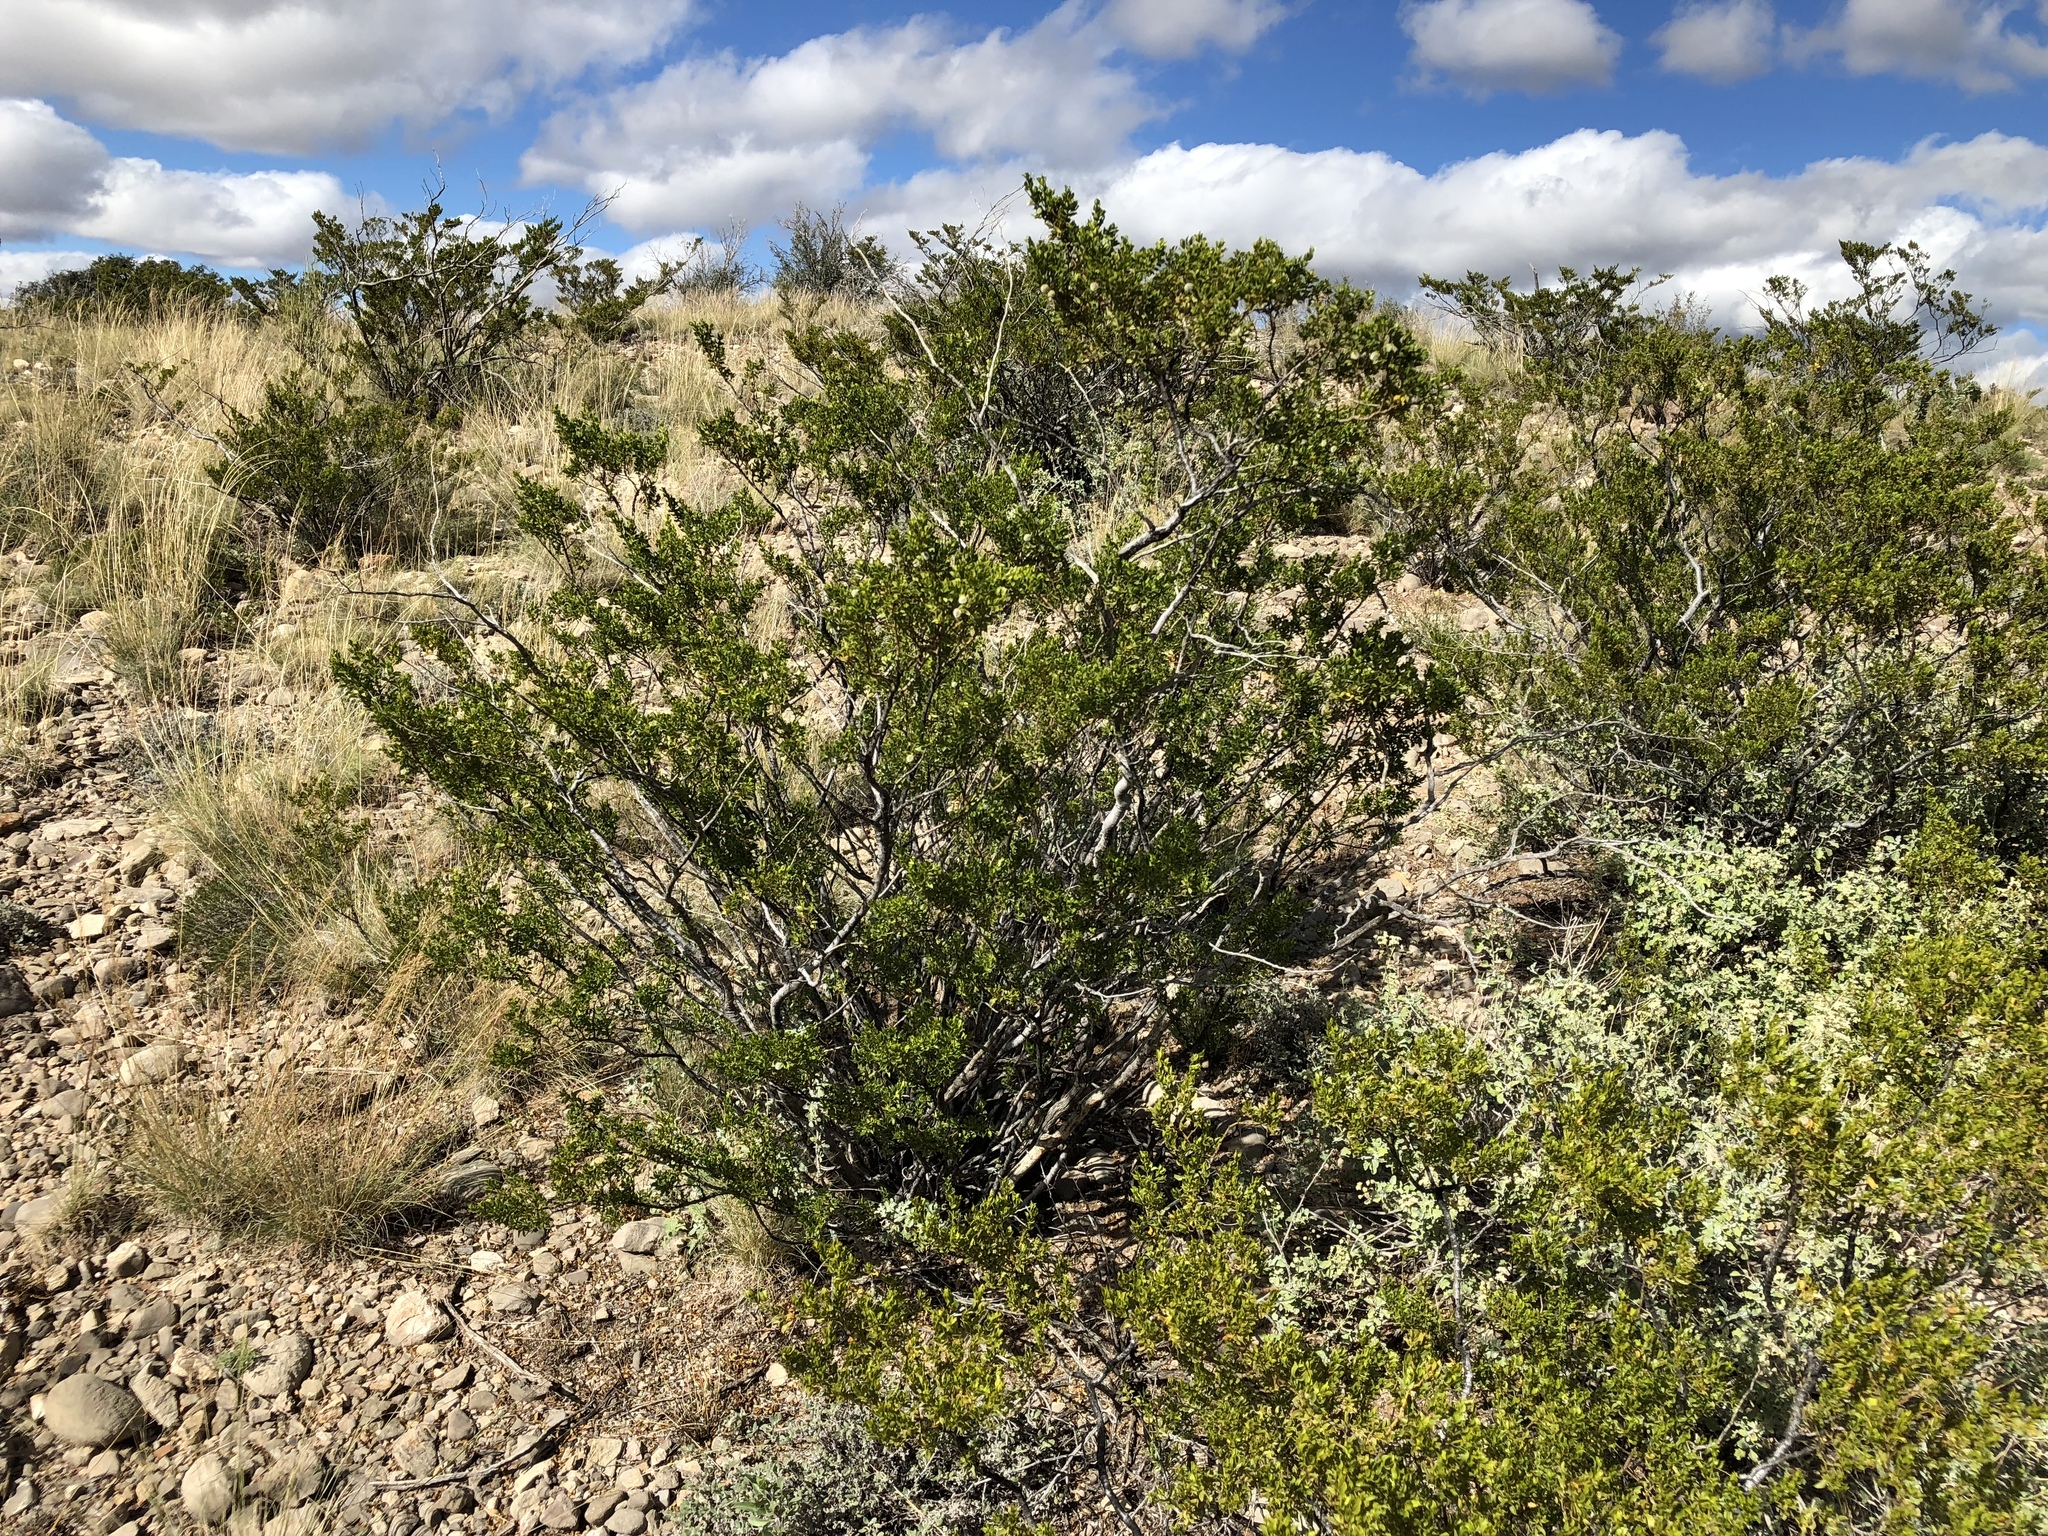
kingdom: Plantae
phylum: Tracheophyta
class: Magnoliopsida
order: Zygophyllales
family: Zygophyllaceae
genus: Larrea
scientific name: Larrea tridentata
